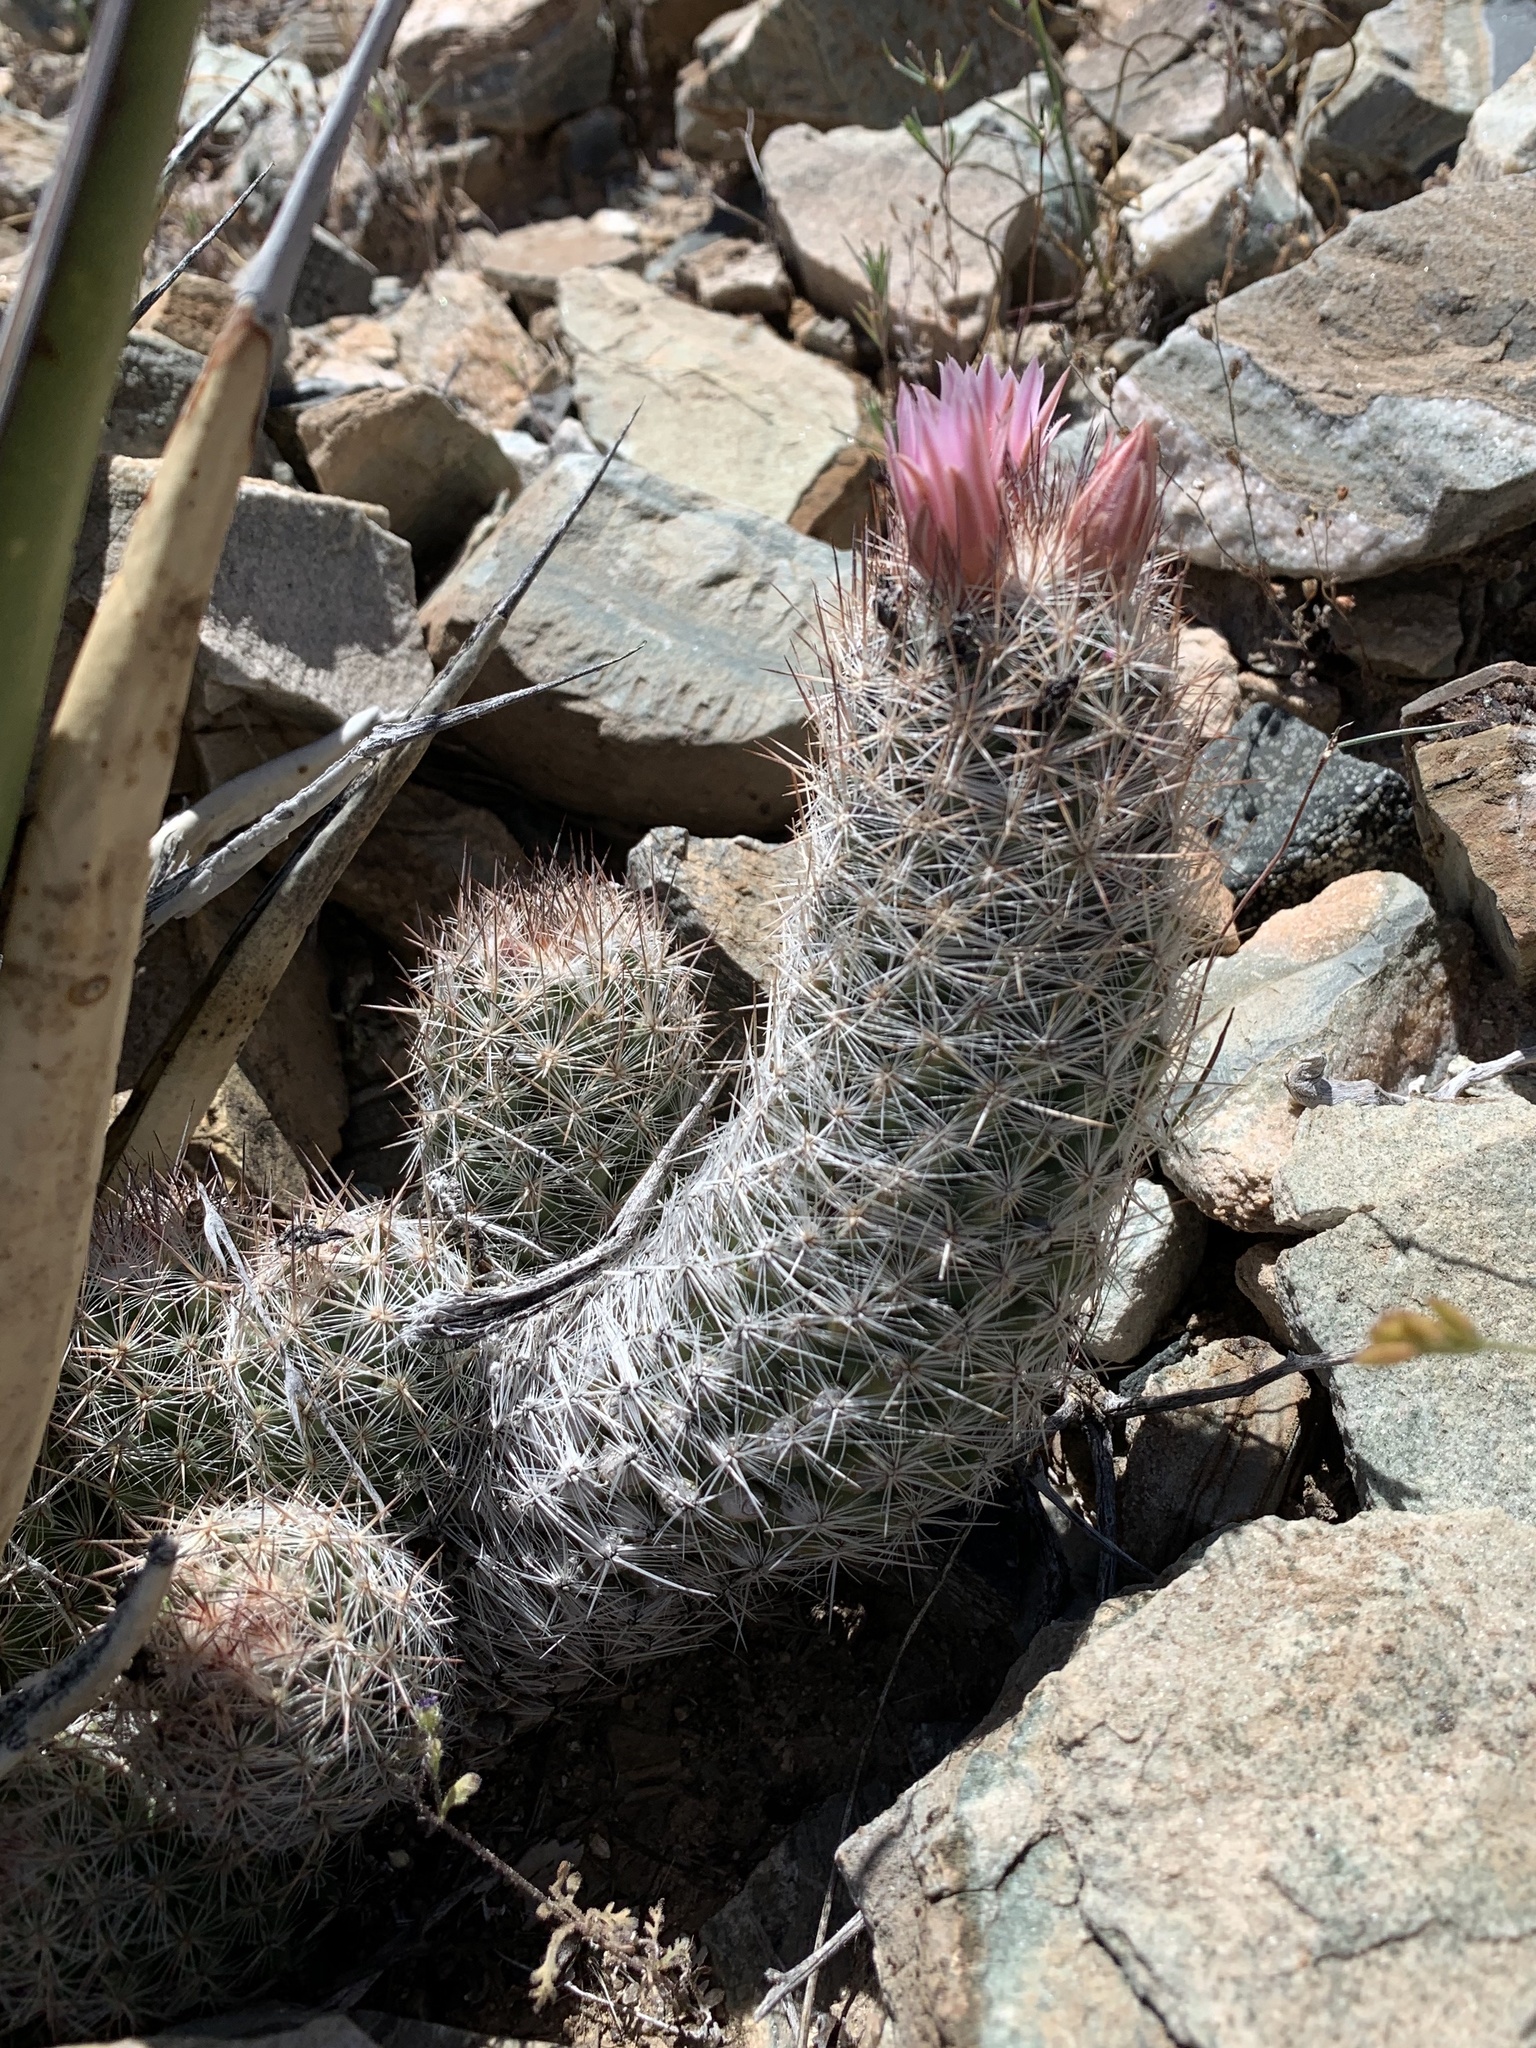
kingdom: Plantae
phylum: Tracheophyta
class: Magnoliopsida
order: Caryophyllales
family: Cactaceae
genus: Pelecyphora
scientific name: Pelecyphora tuberculosa
